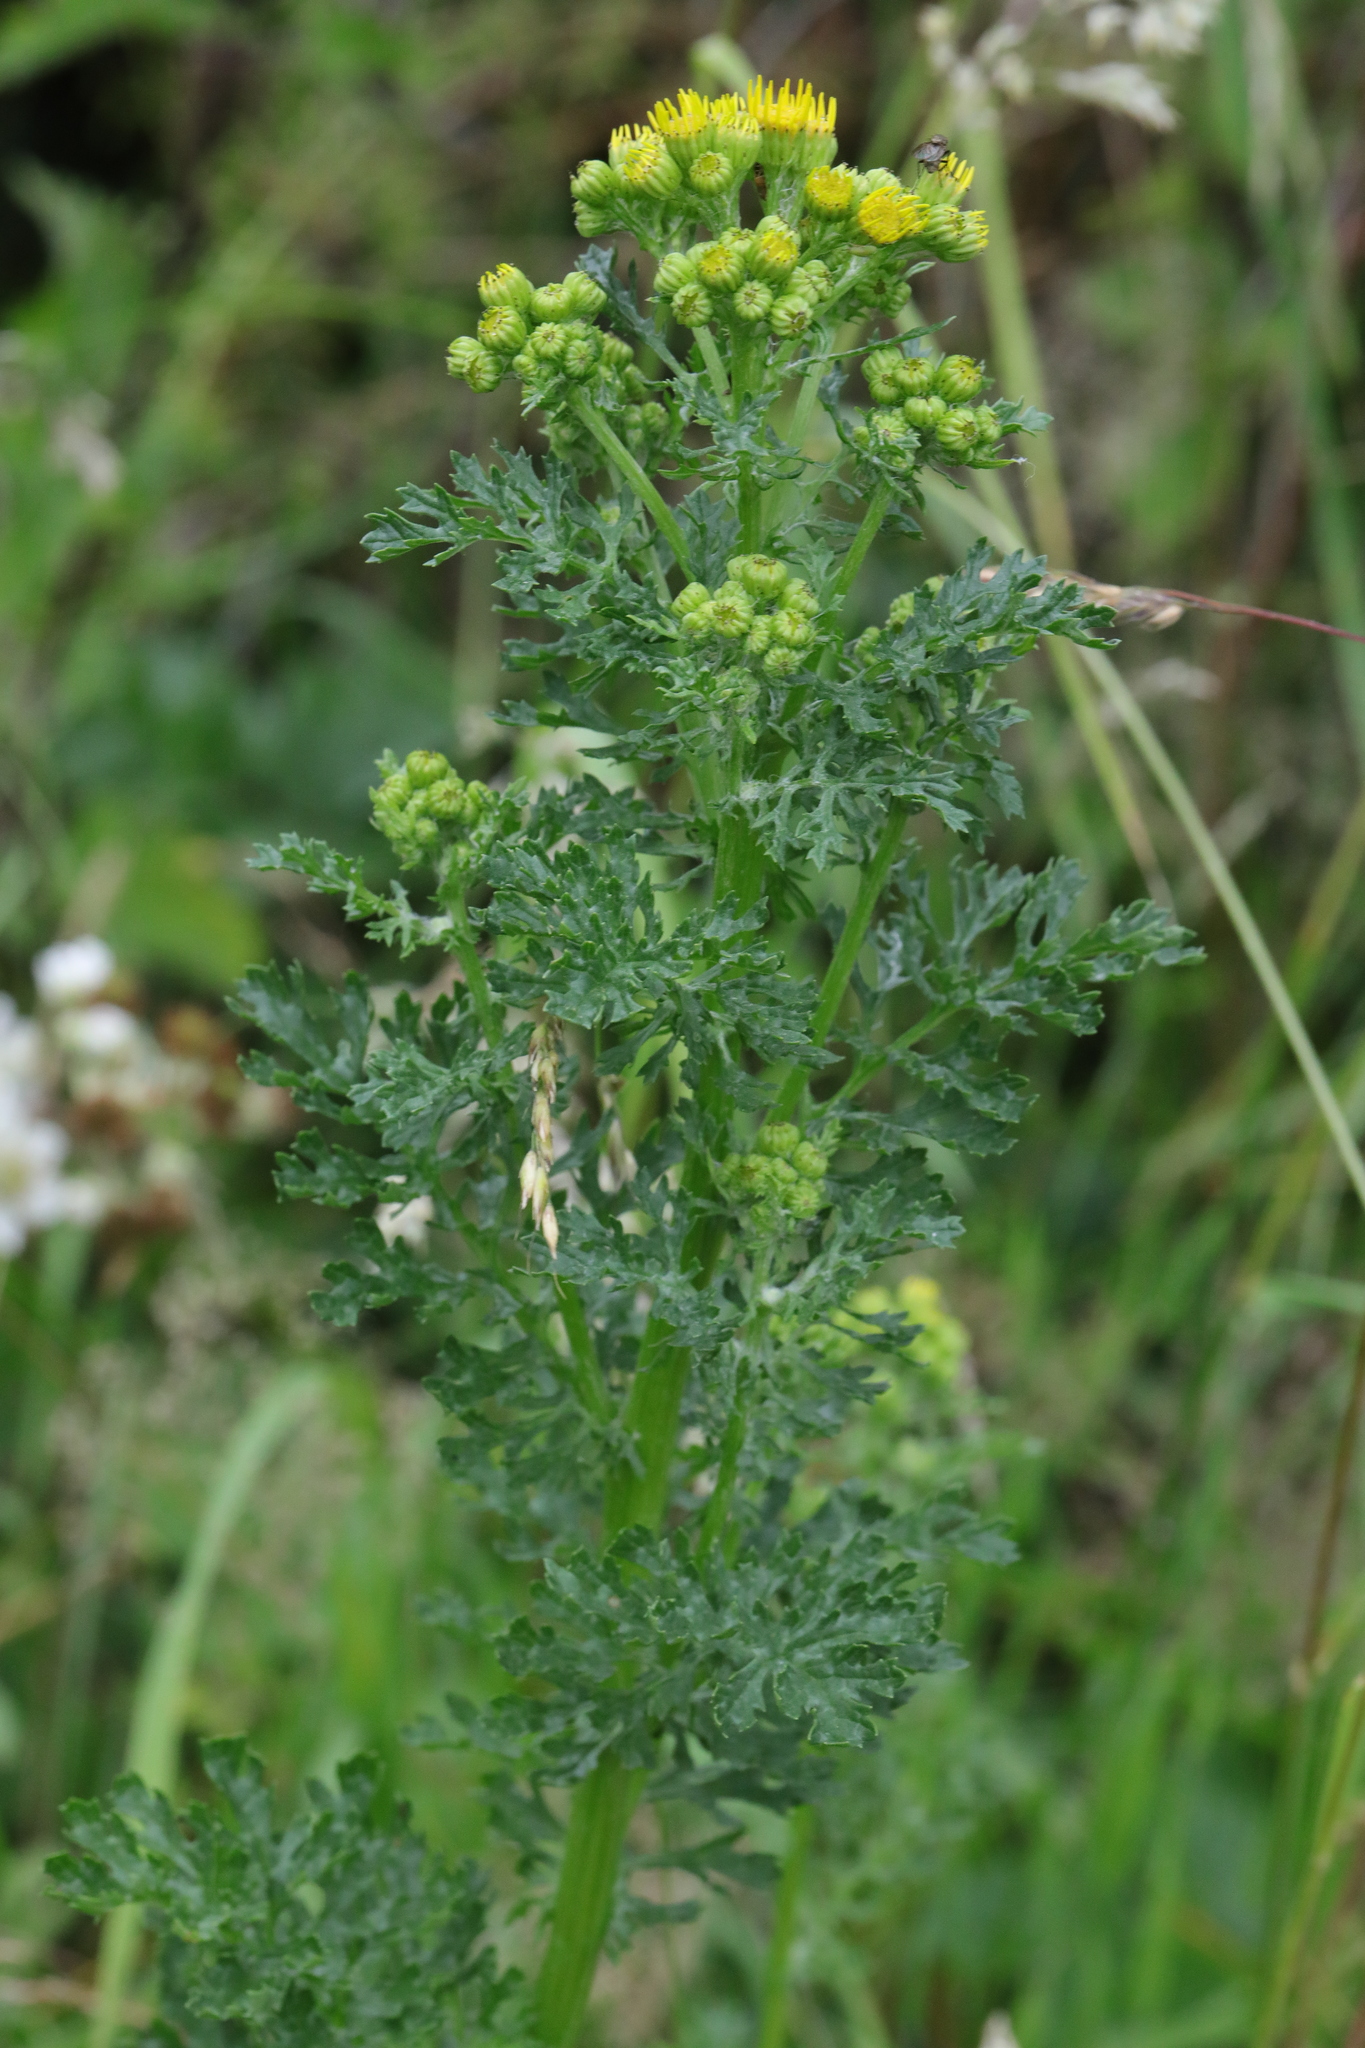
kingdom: Plantae
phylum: Tracheophyta
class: Magnoliopsida
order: Asterales
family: Asteraceae
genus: Jacobaea
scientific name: Jacobaea vulgaris
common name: Stinking willie
